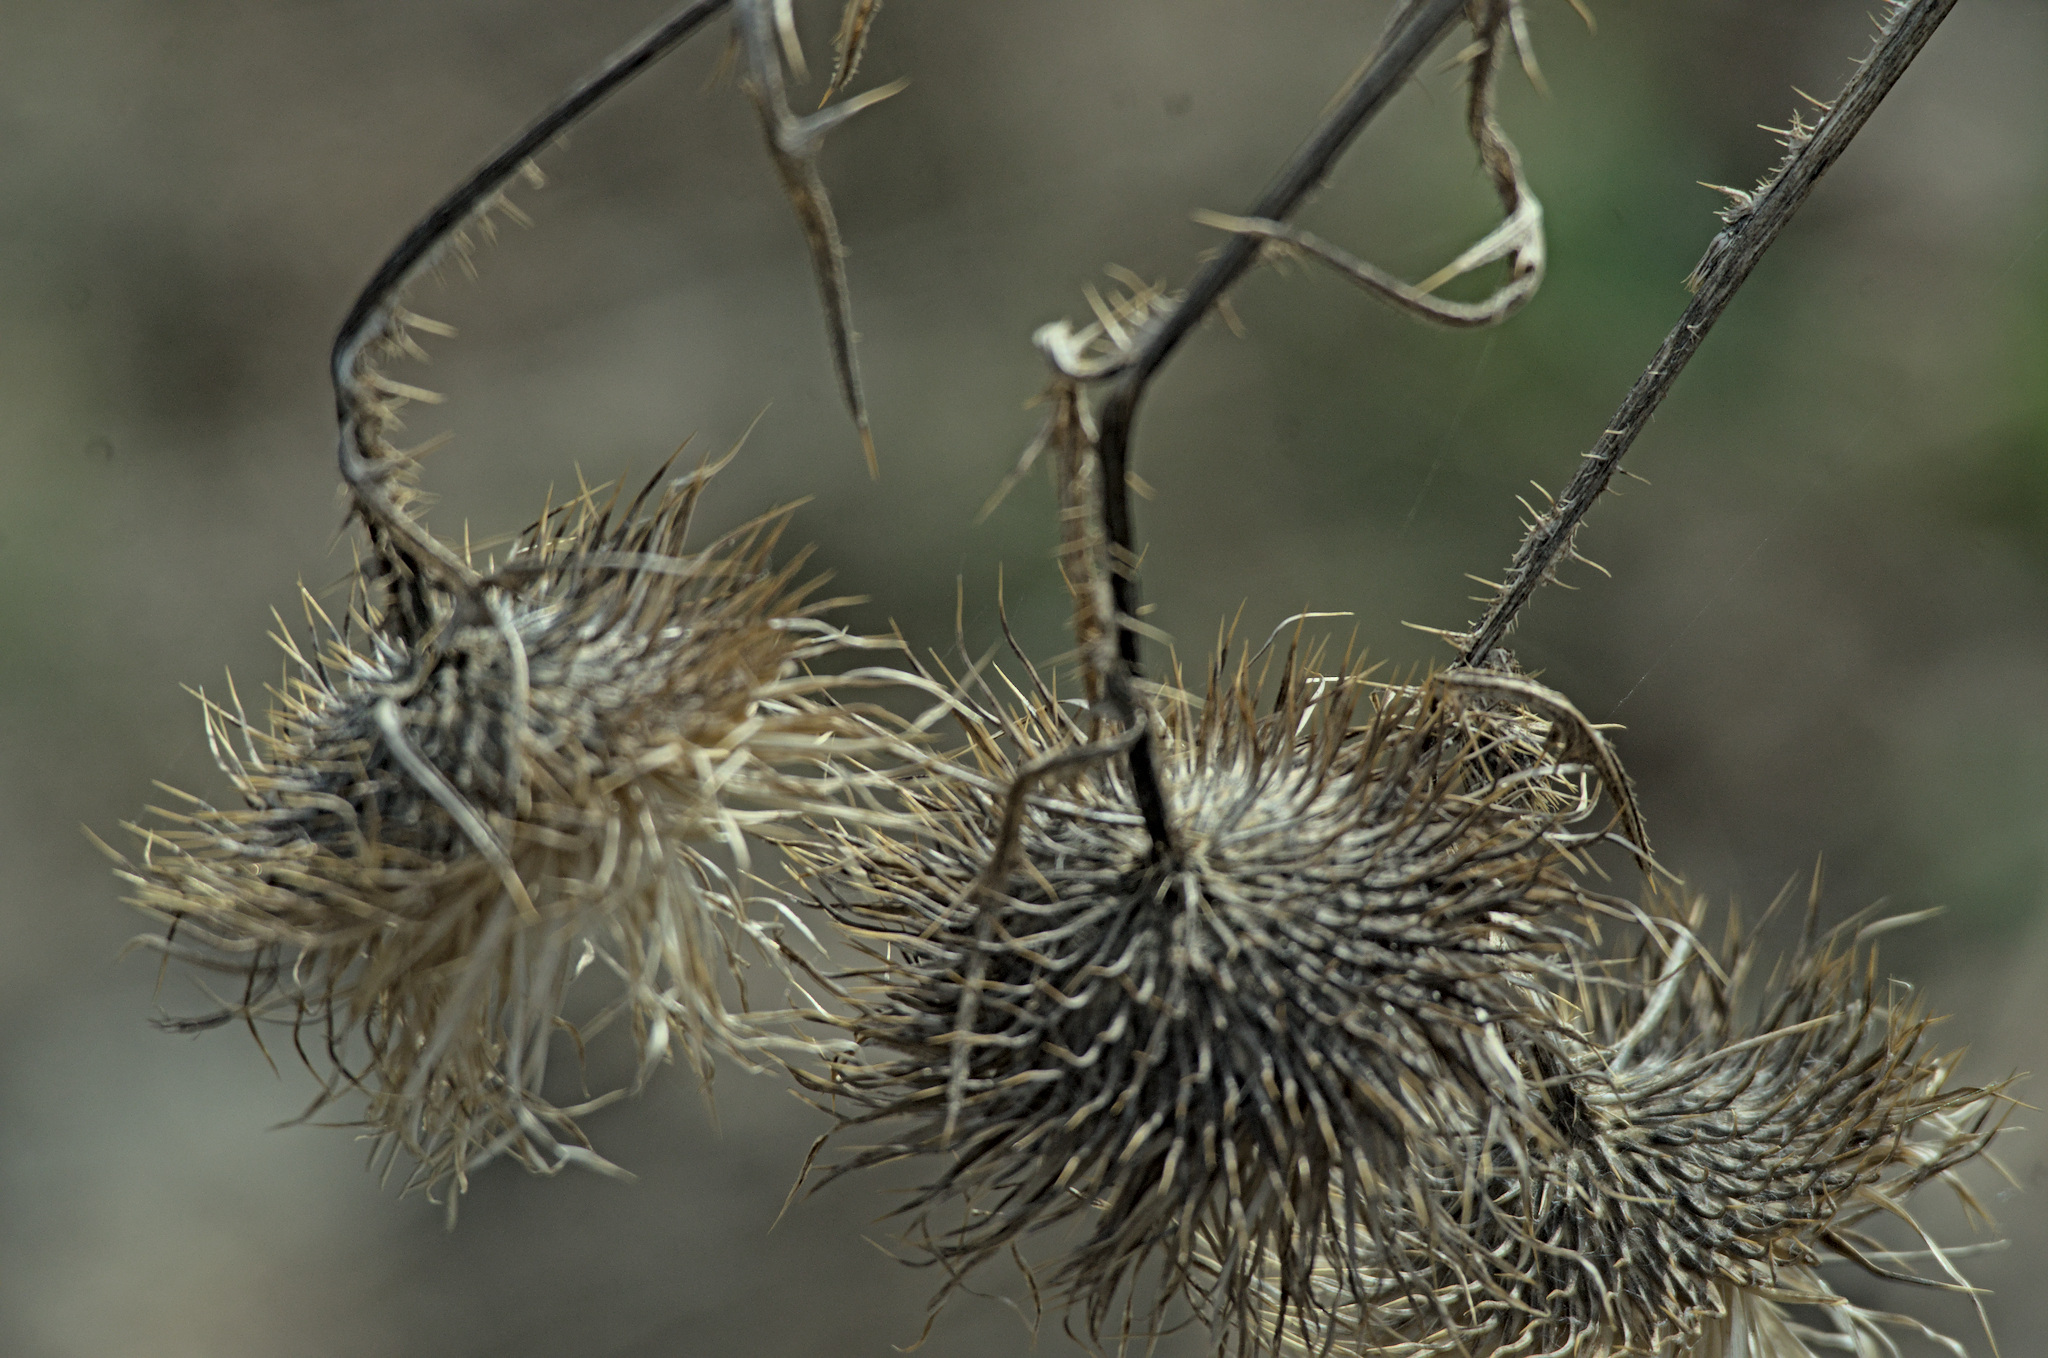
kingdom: Plantae
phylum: Tracheophyta
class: Magnoliopsida
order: Asterales
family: Asteraceae
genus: Cirsium
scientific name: Cirsium vulgare
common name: Bull thistle
